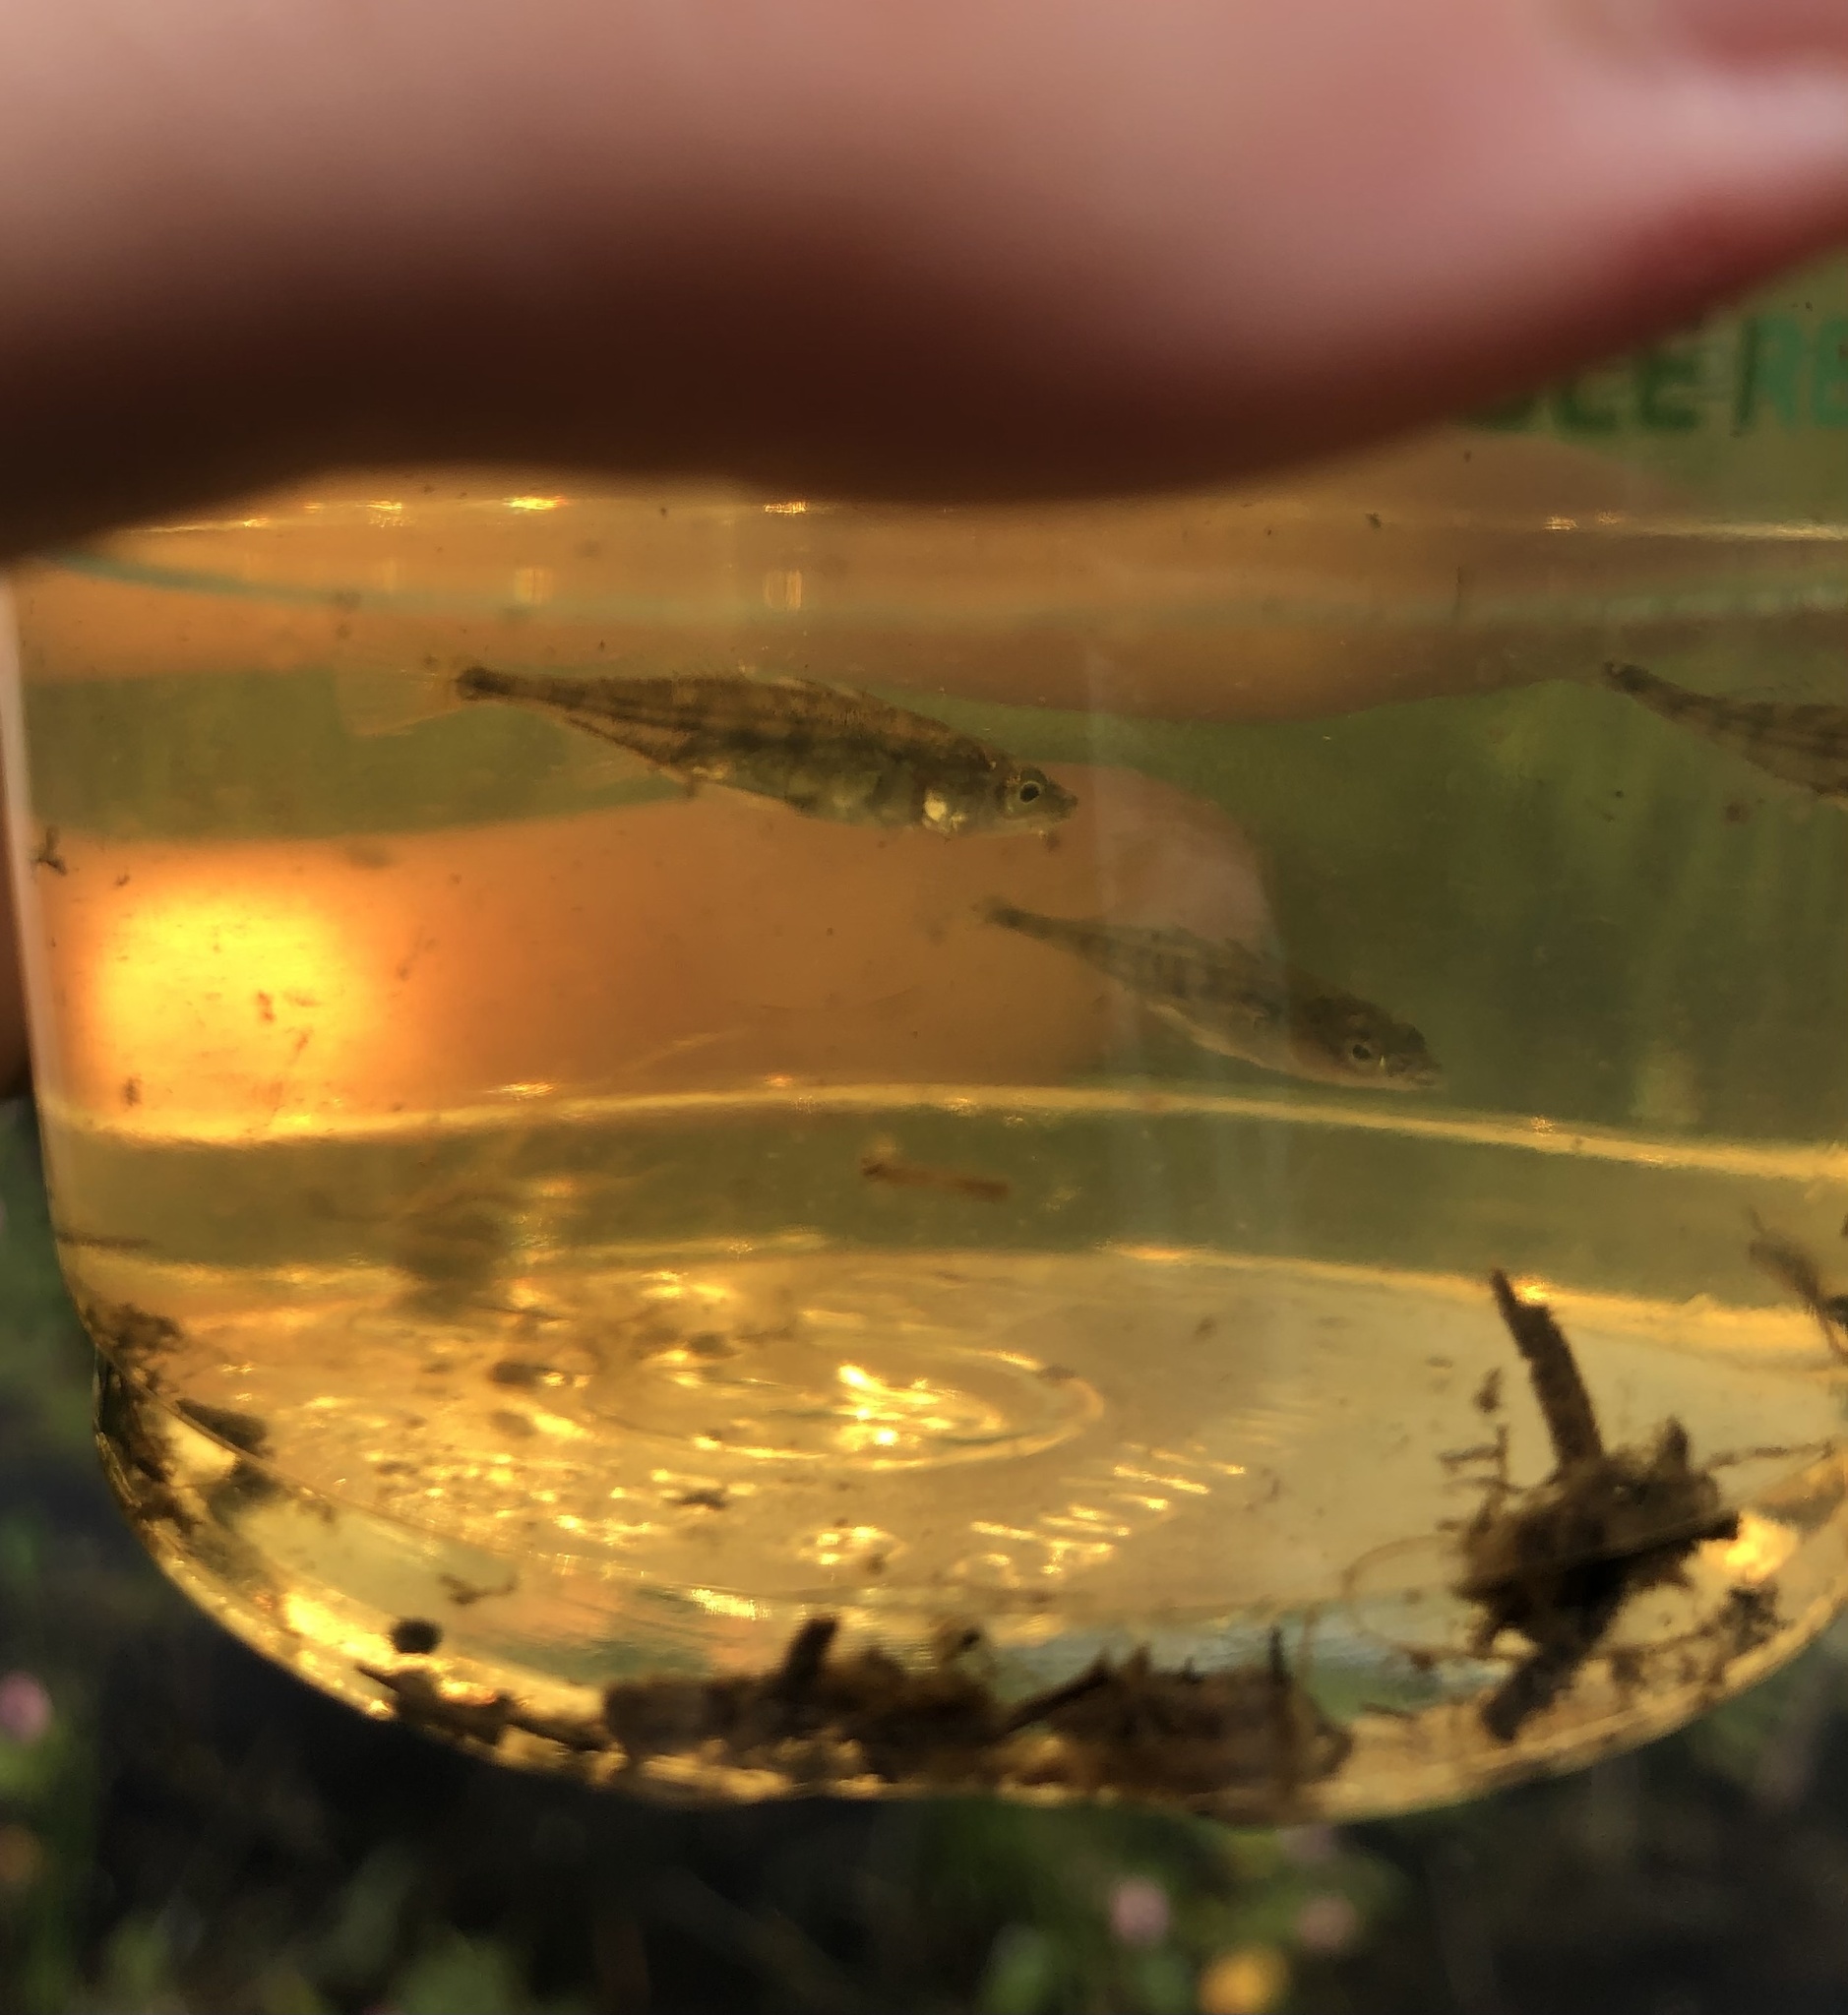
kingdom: Animalia
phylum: Chordata
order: Gasterosteiformes
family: Gasterosteidae
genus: Gasterosteus
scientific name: Gasterosteus aculeatus
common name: Three-spined stickleback
